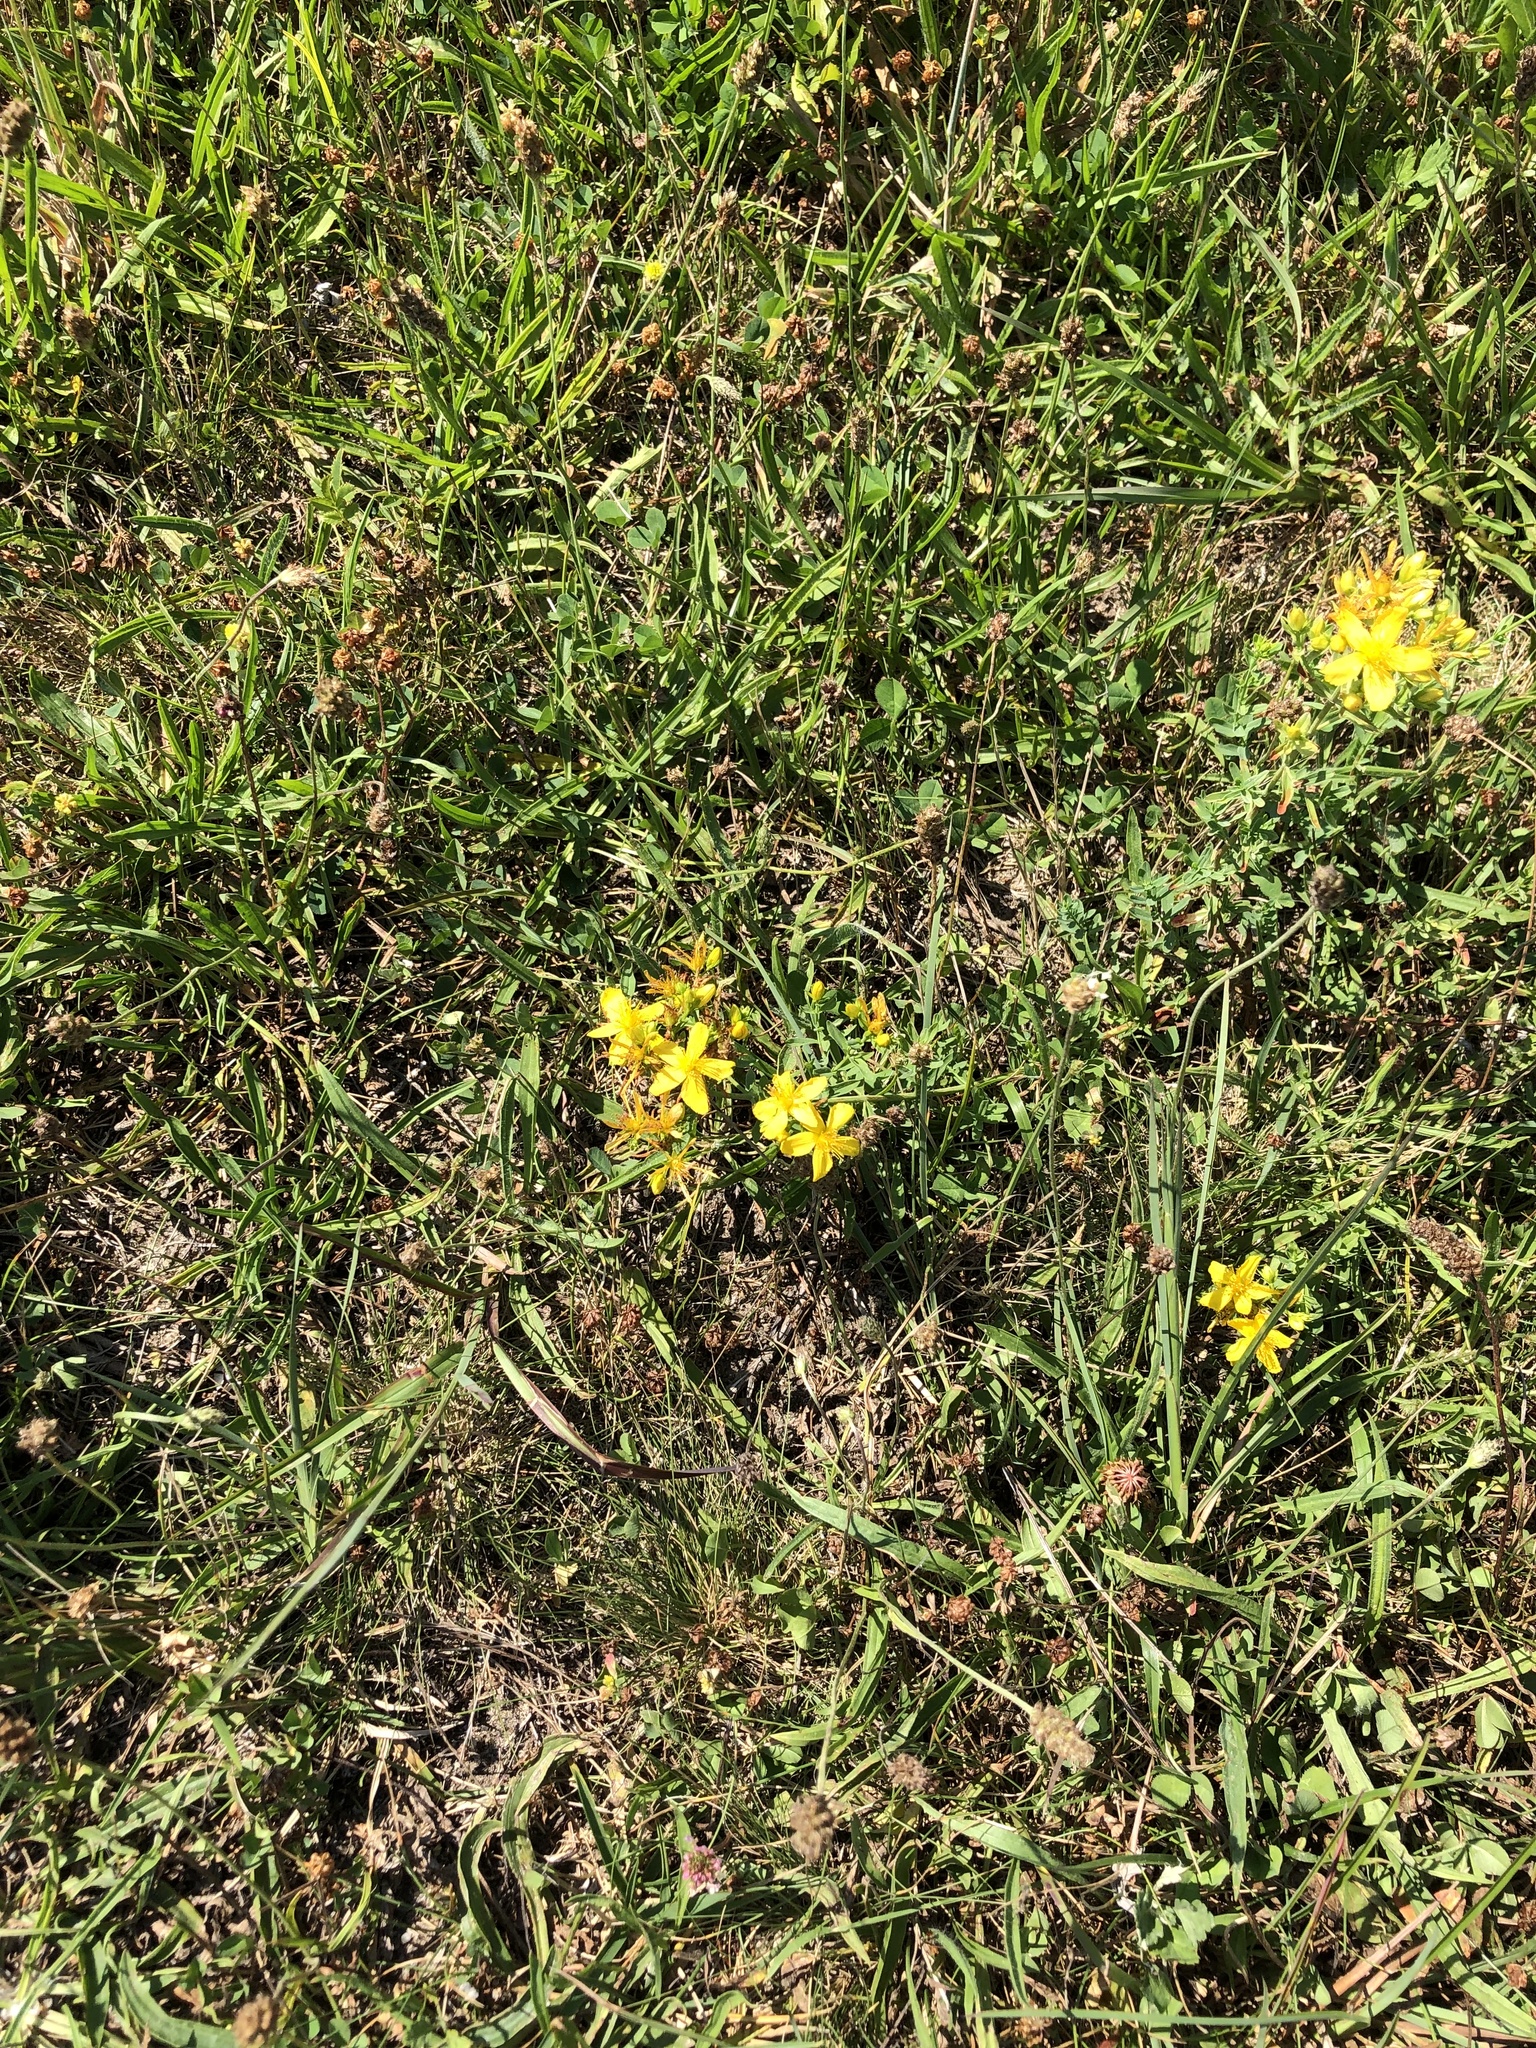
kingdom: Plantae
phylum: Tracheophyta
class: Magnoliopsida
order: Malpighiales
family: Hypericaceae
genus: Hypericum
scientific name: Hypericum perforatum
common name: Common st. johnswort
